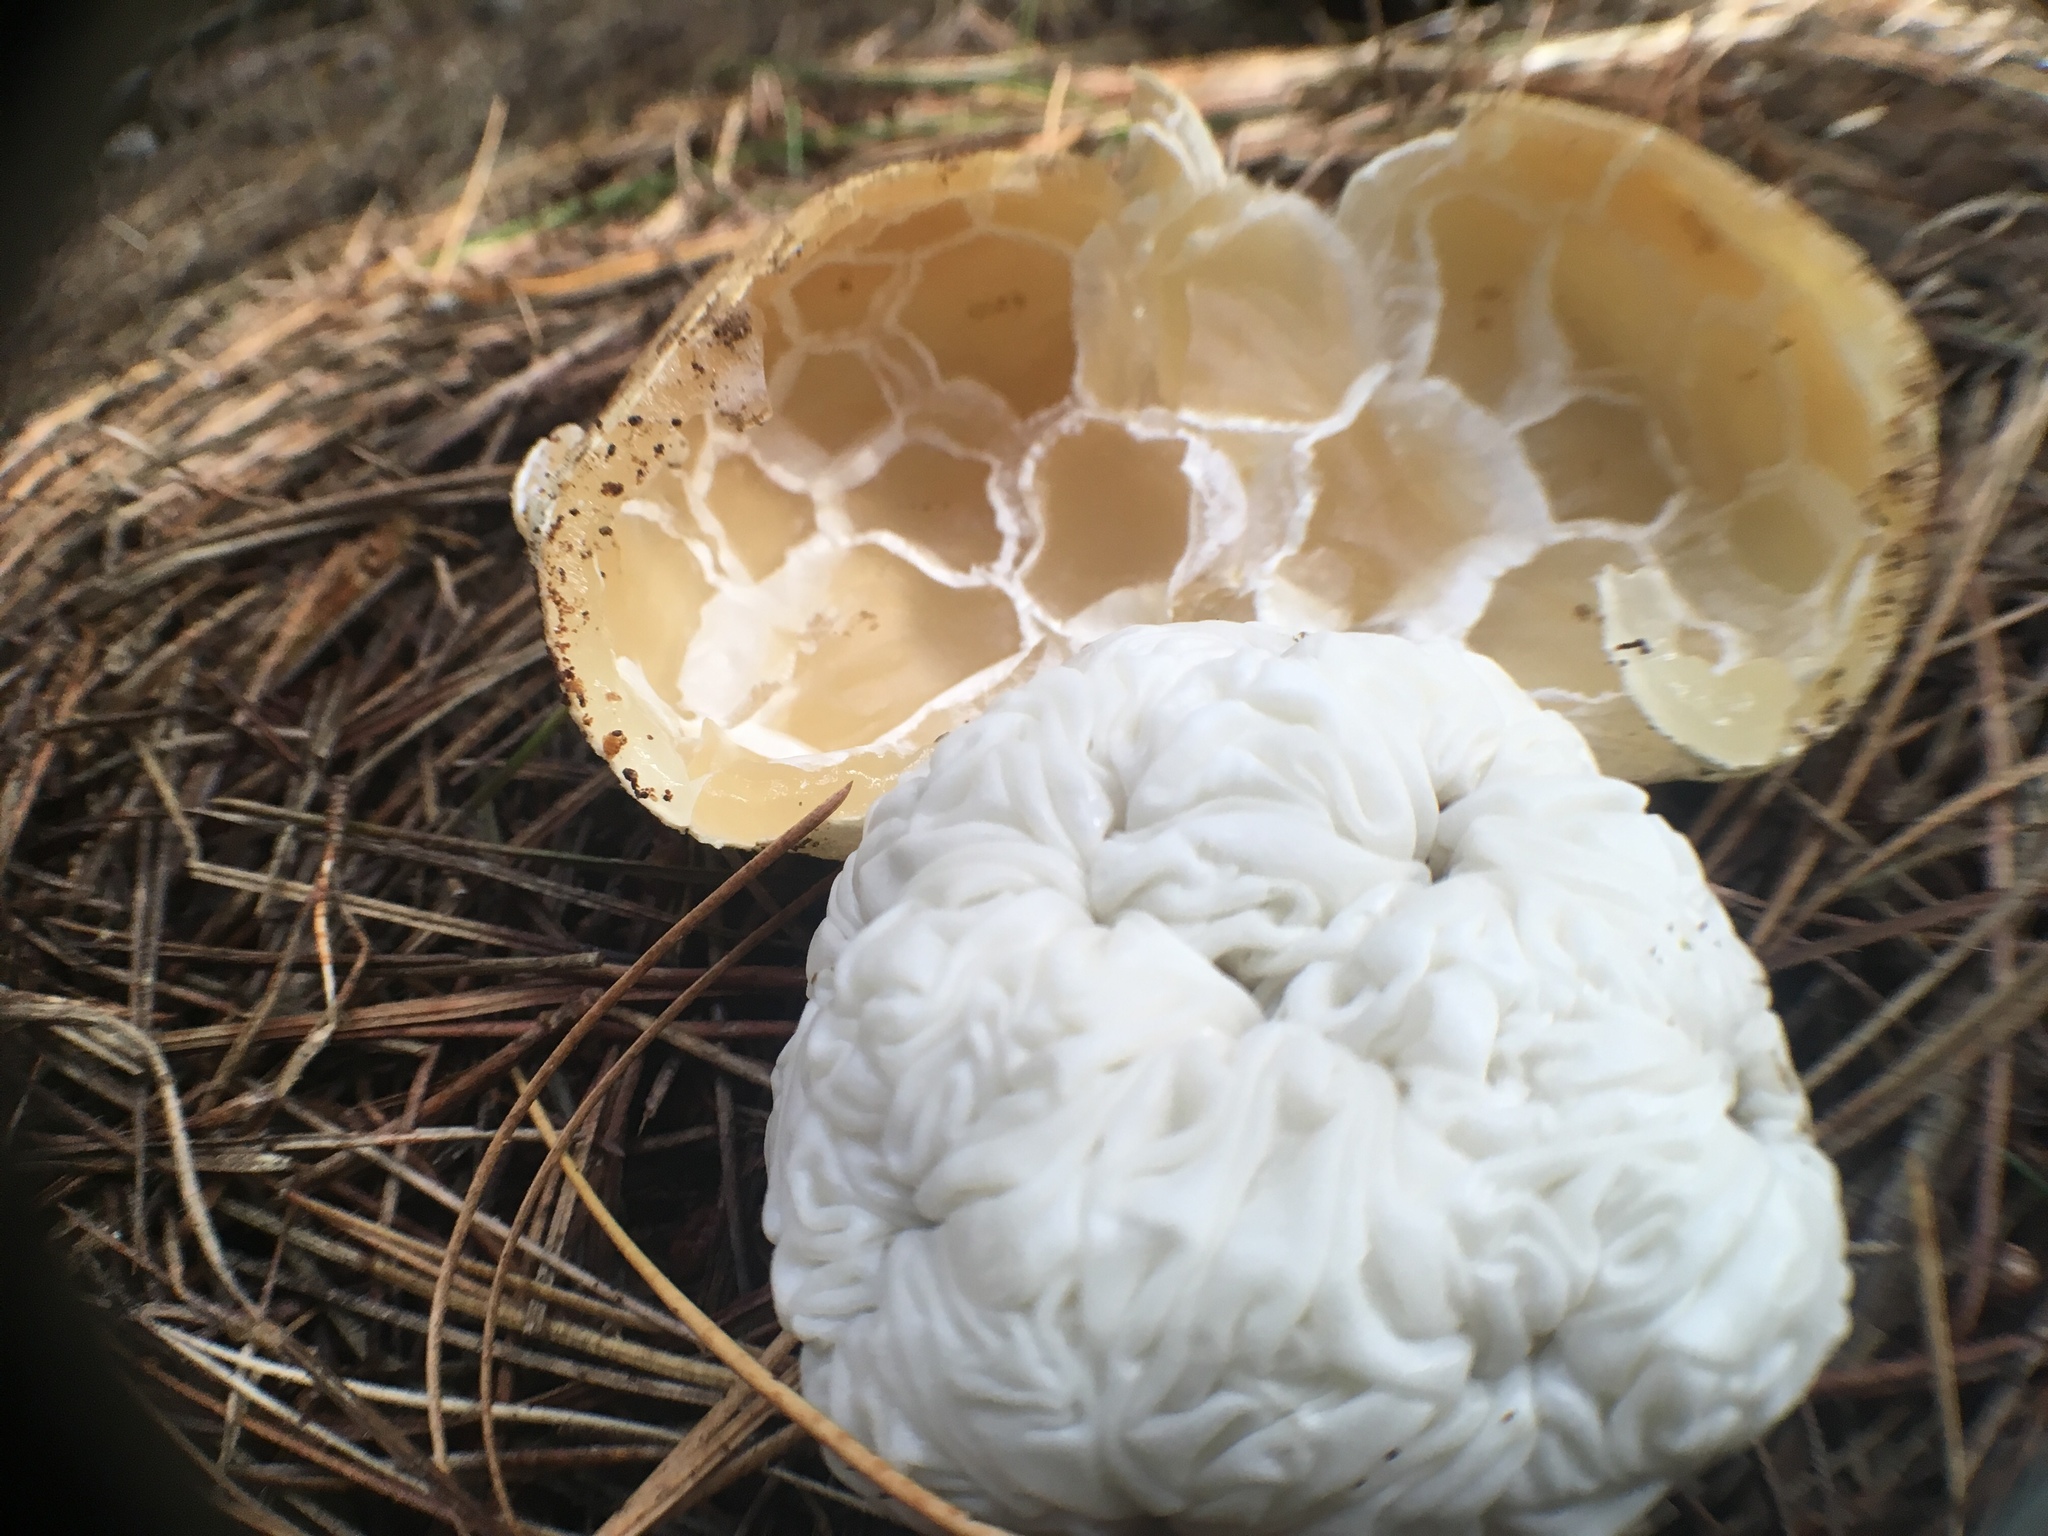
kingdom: Fungi
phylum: Basidiomycota
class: Agaricomycetes
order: Phallales
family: Phallaceae
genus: Ileodictyon
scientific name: Ileodictyon cibarium
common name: Basket fungus
